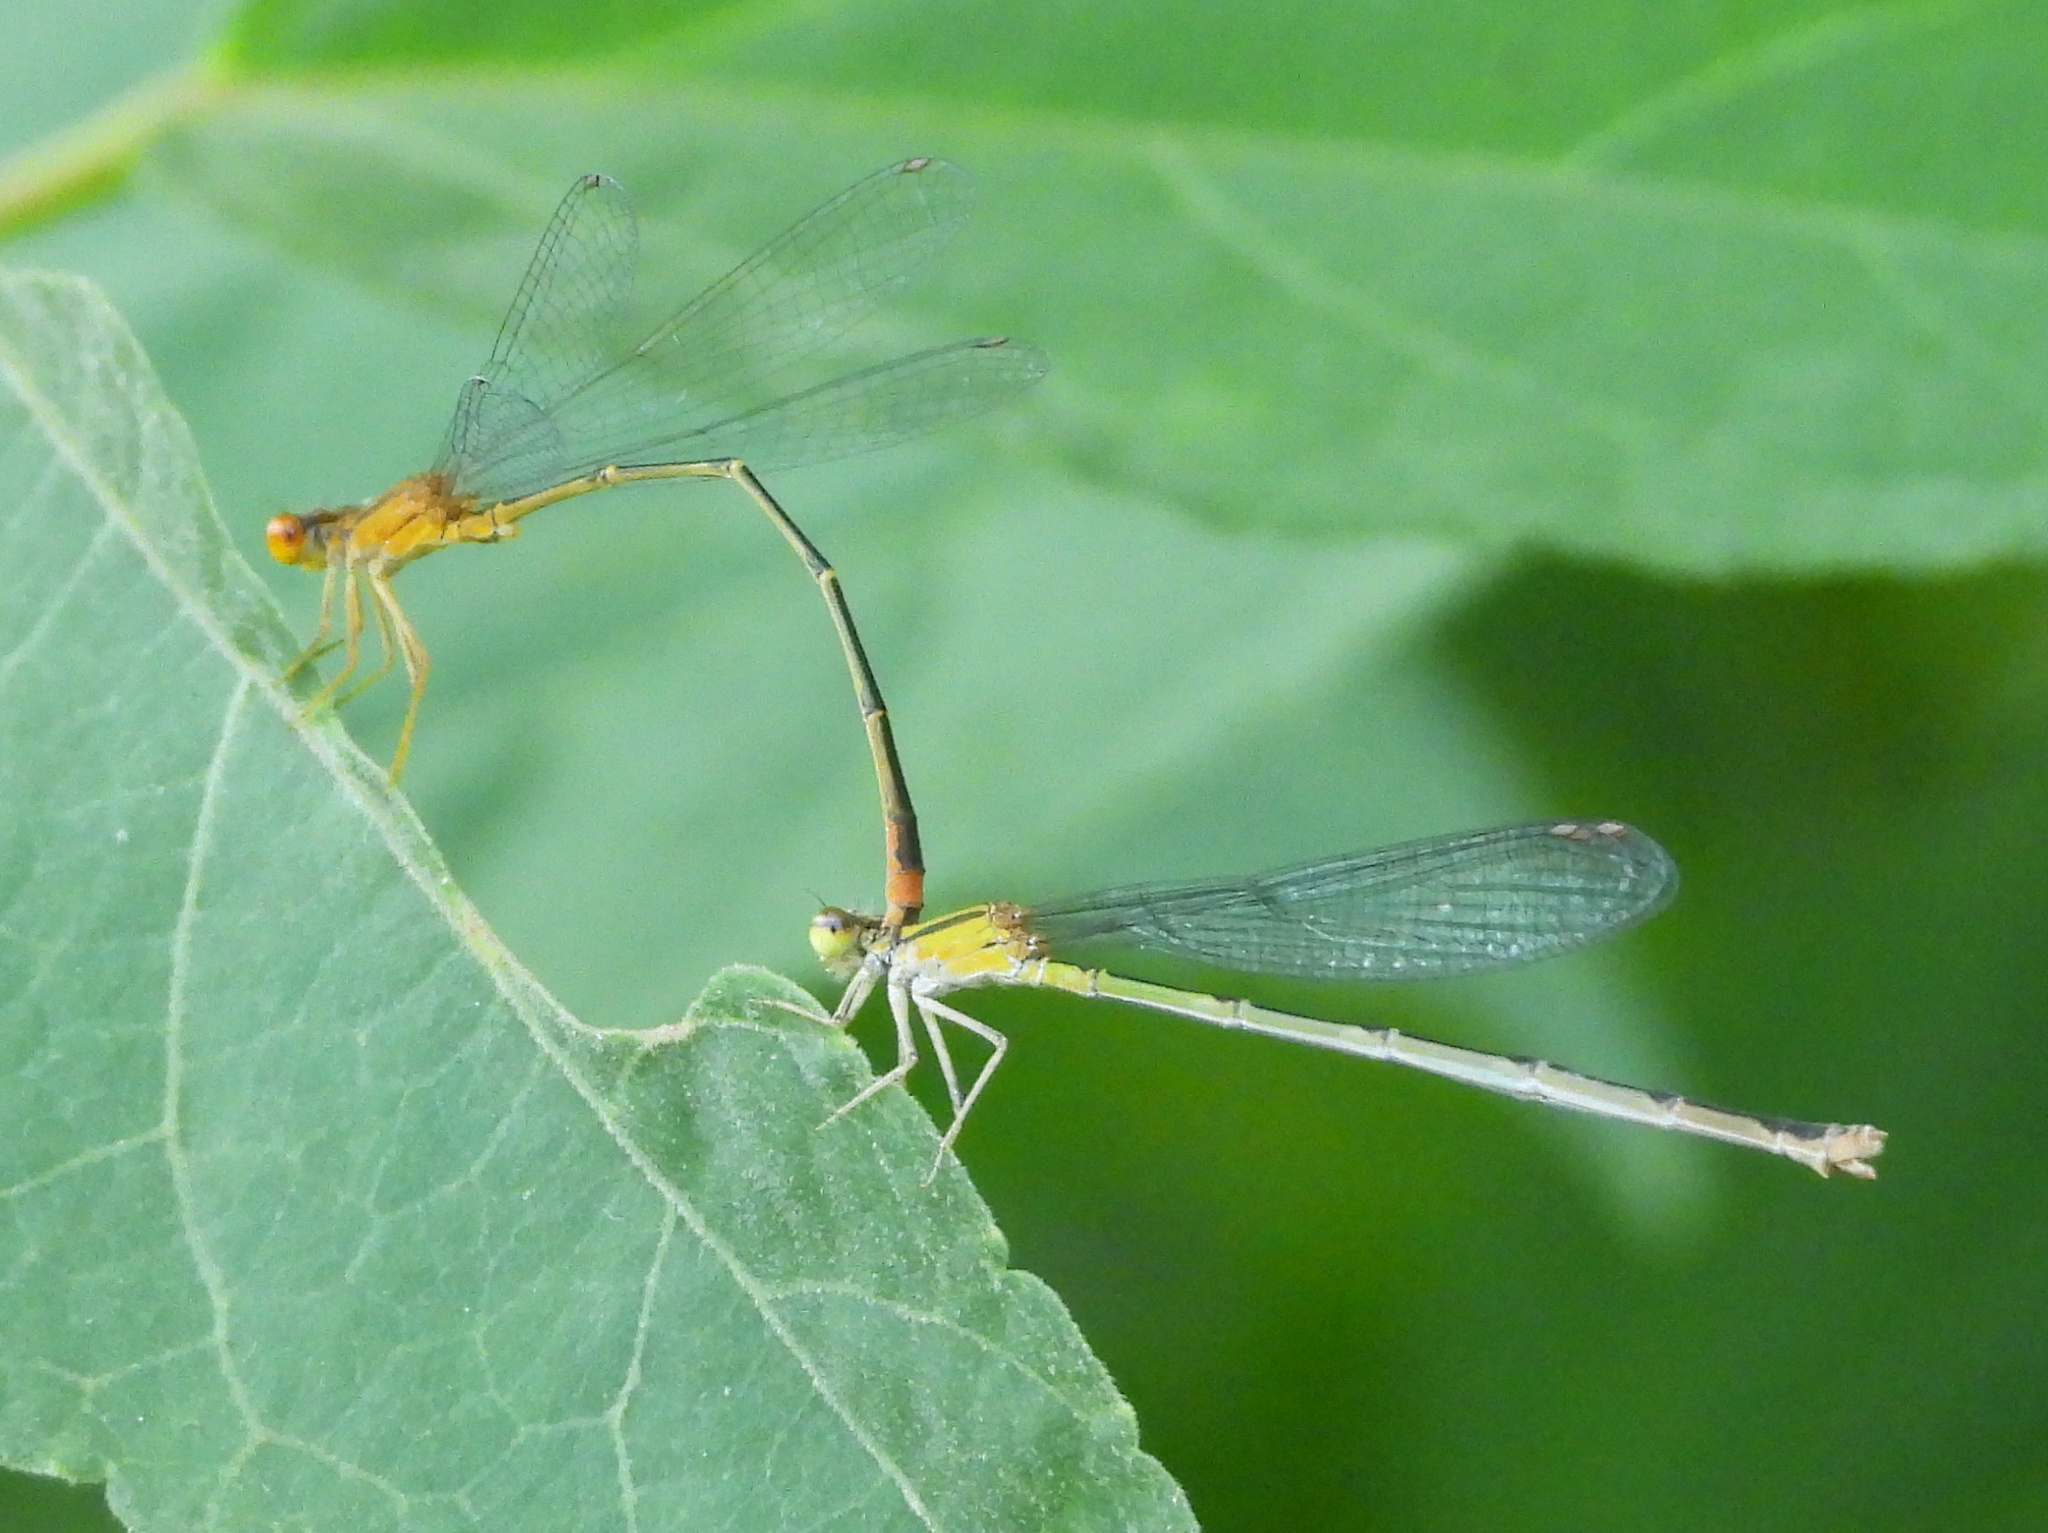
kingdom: Animalia
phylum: Arthropoda
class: Insecta
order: Odonata
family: Coenagrionidae
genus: Enallagma
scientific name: Enallagma signatum
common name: Orange bluet
